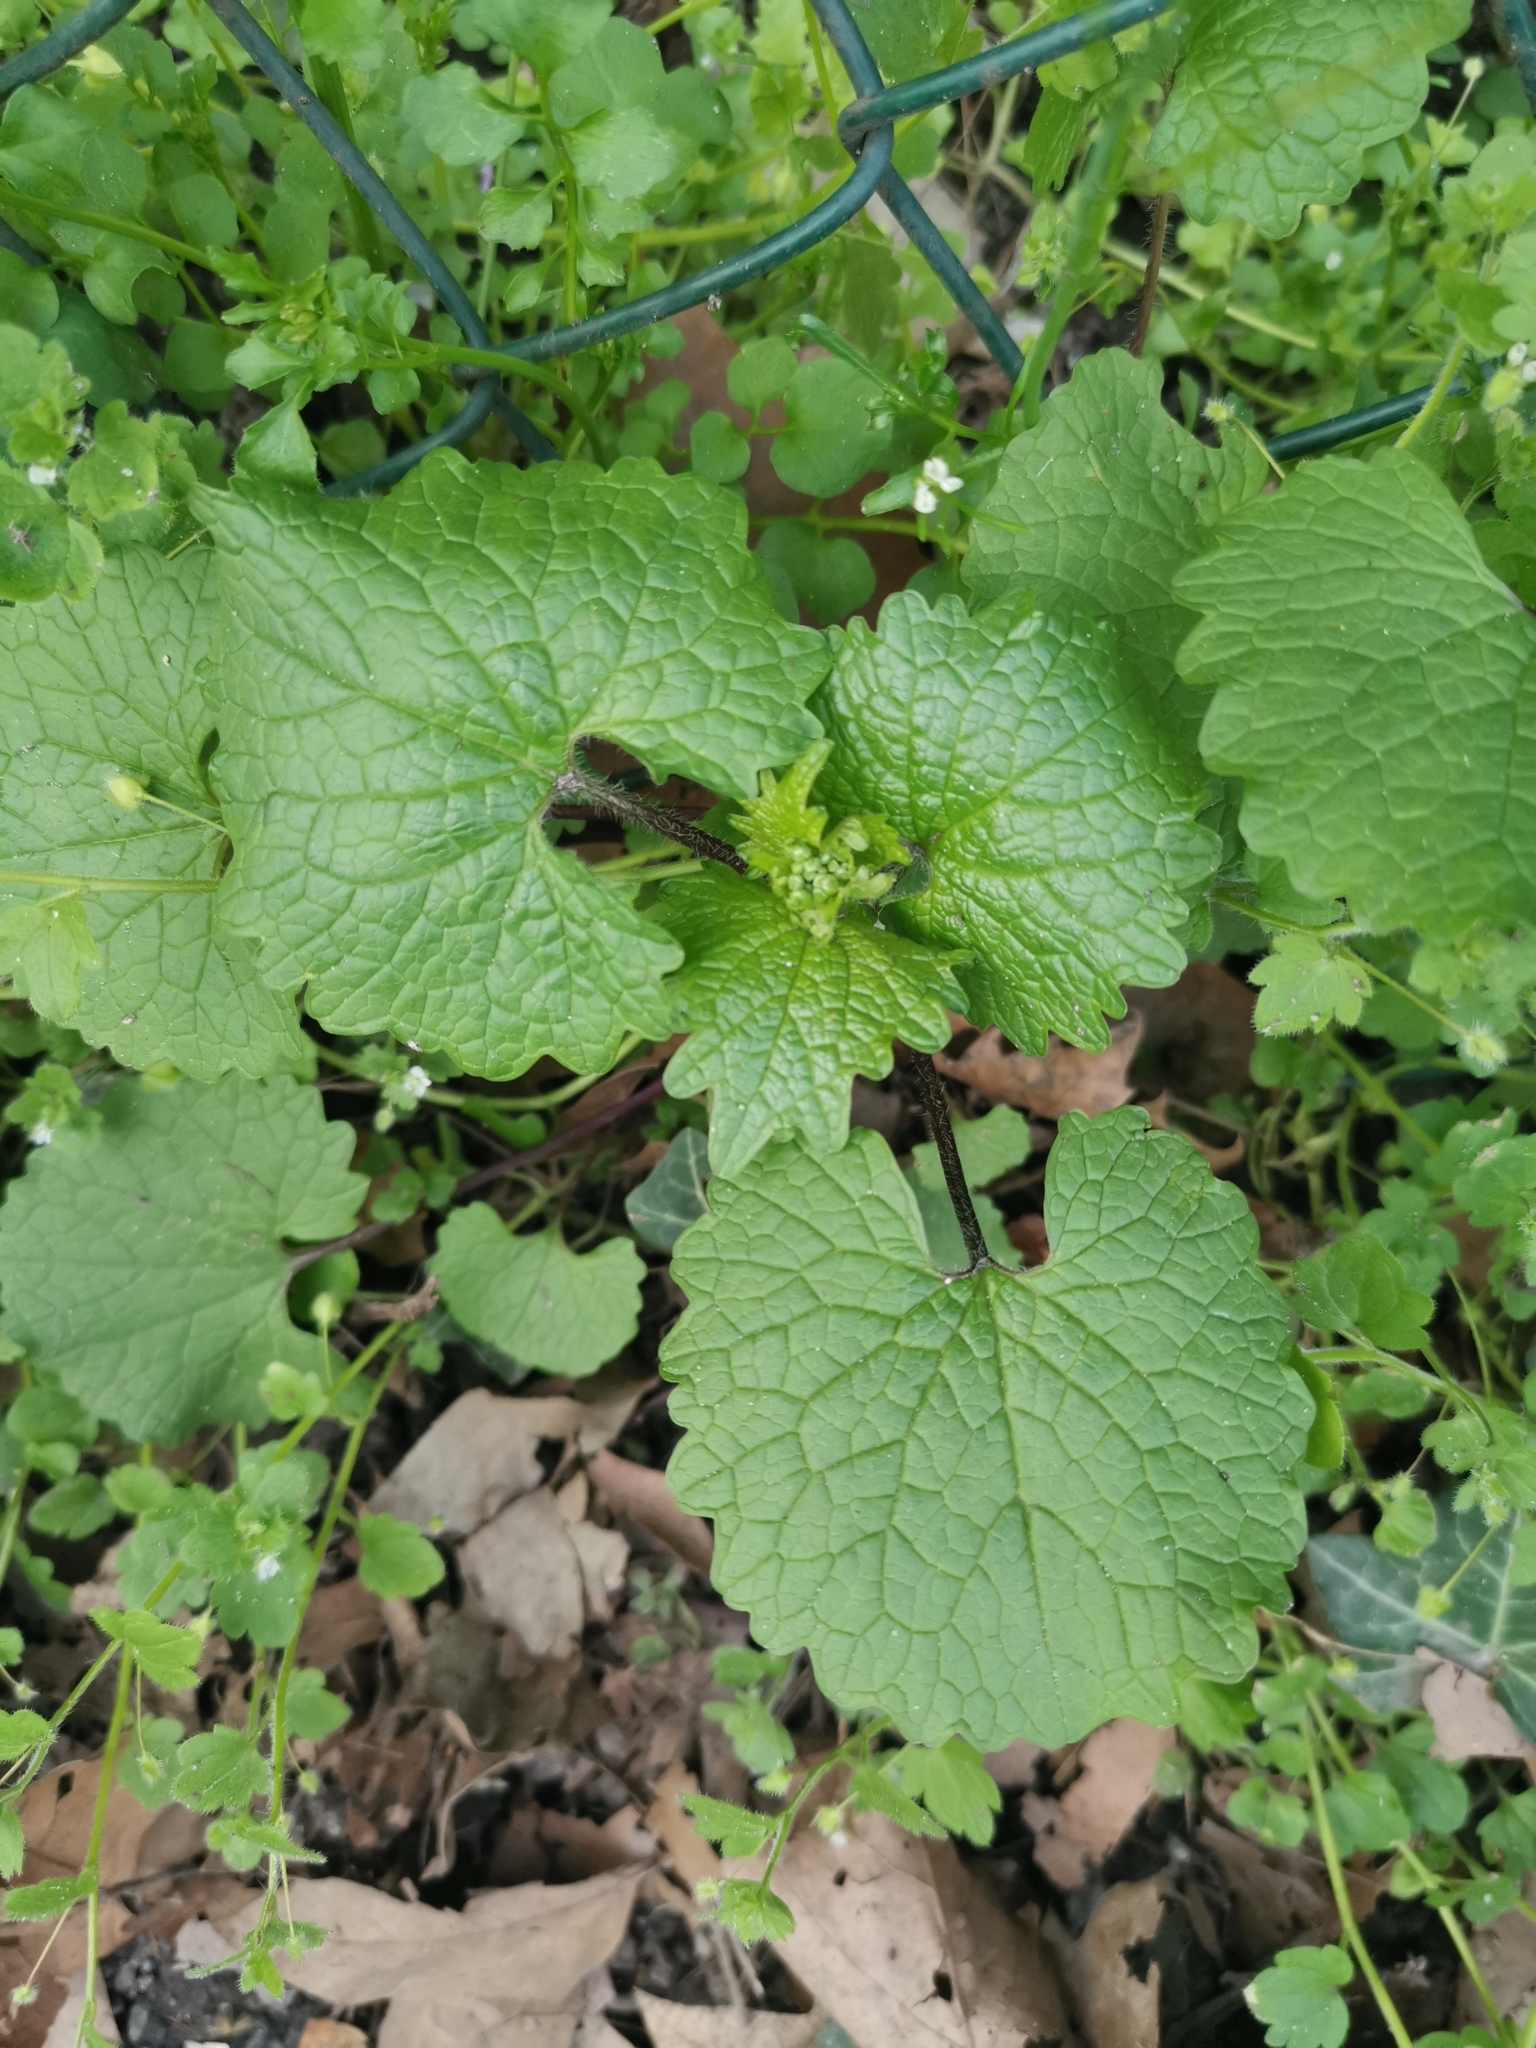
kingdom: Plantae
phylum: Tracheophyta
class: Magnoliopsida
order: Brassicales
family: Brassicaceae
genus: Alliaria
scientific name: Alliaria petiolata
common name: Garlic mustard
